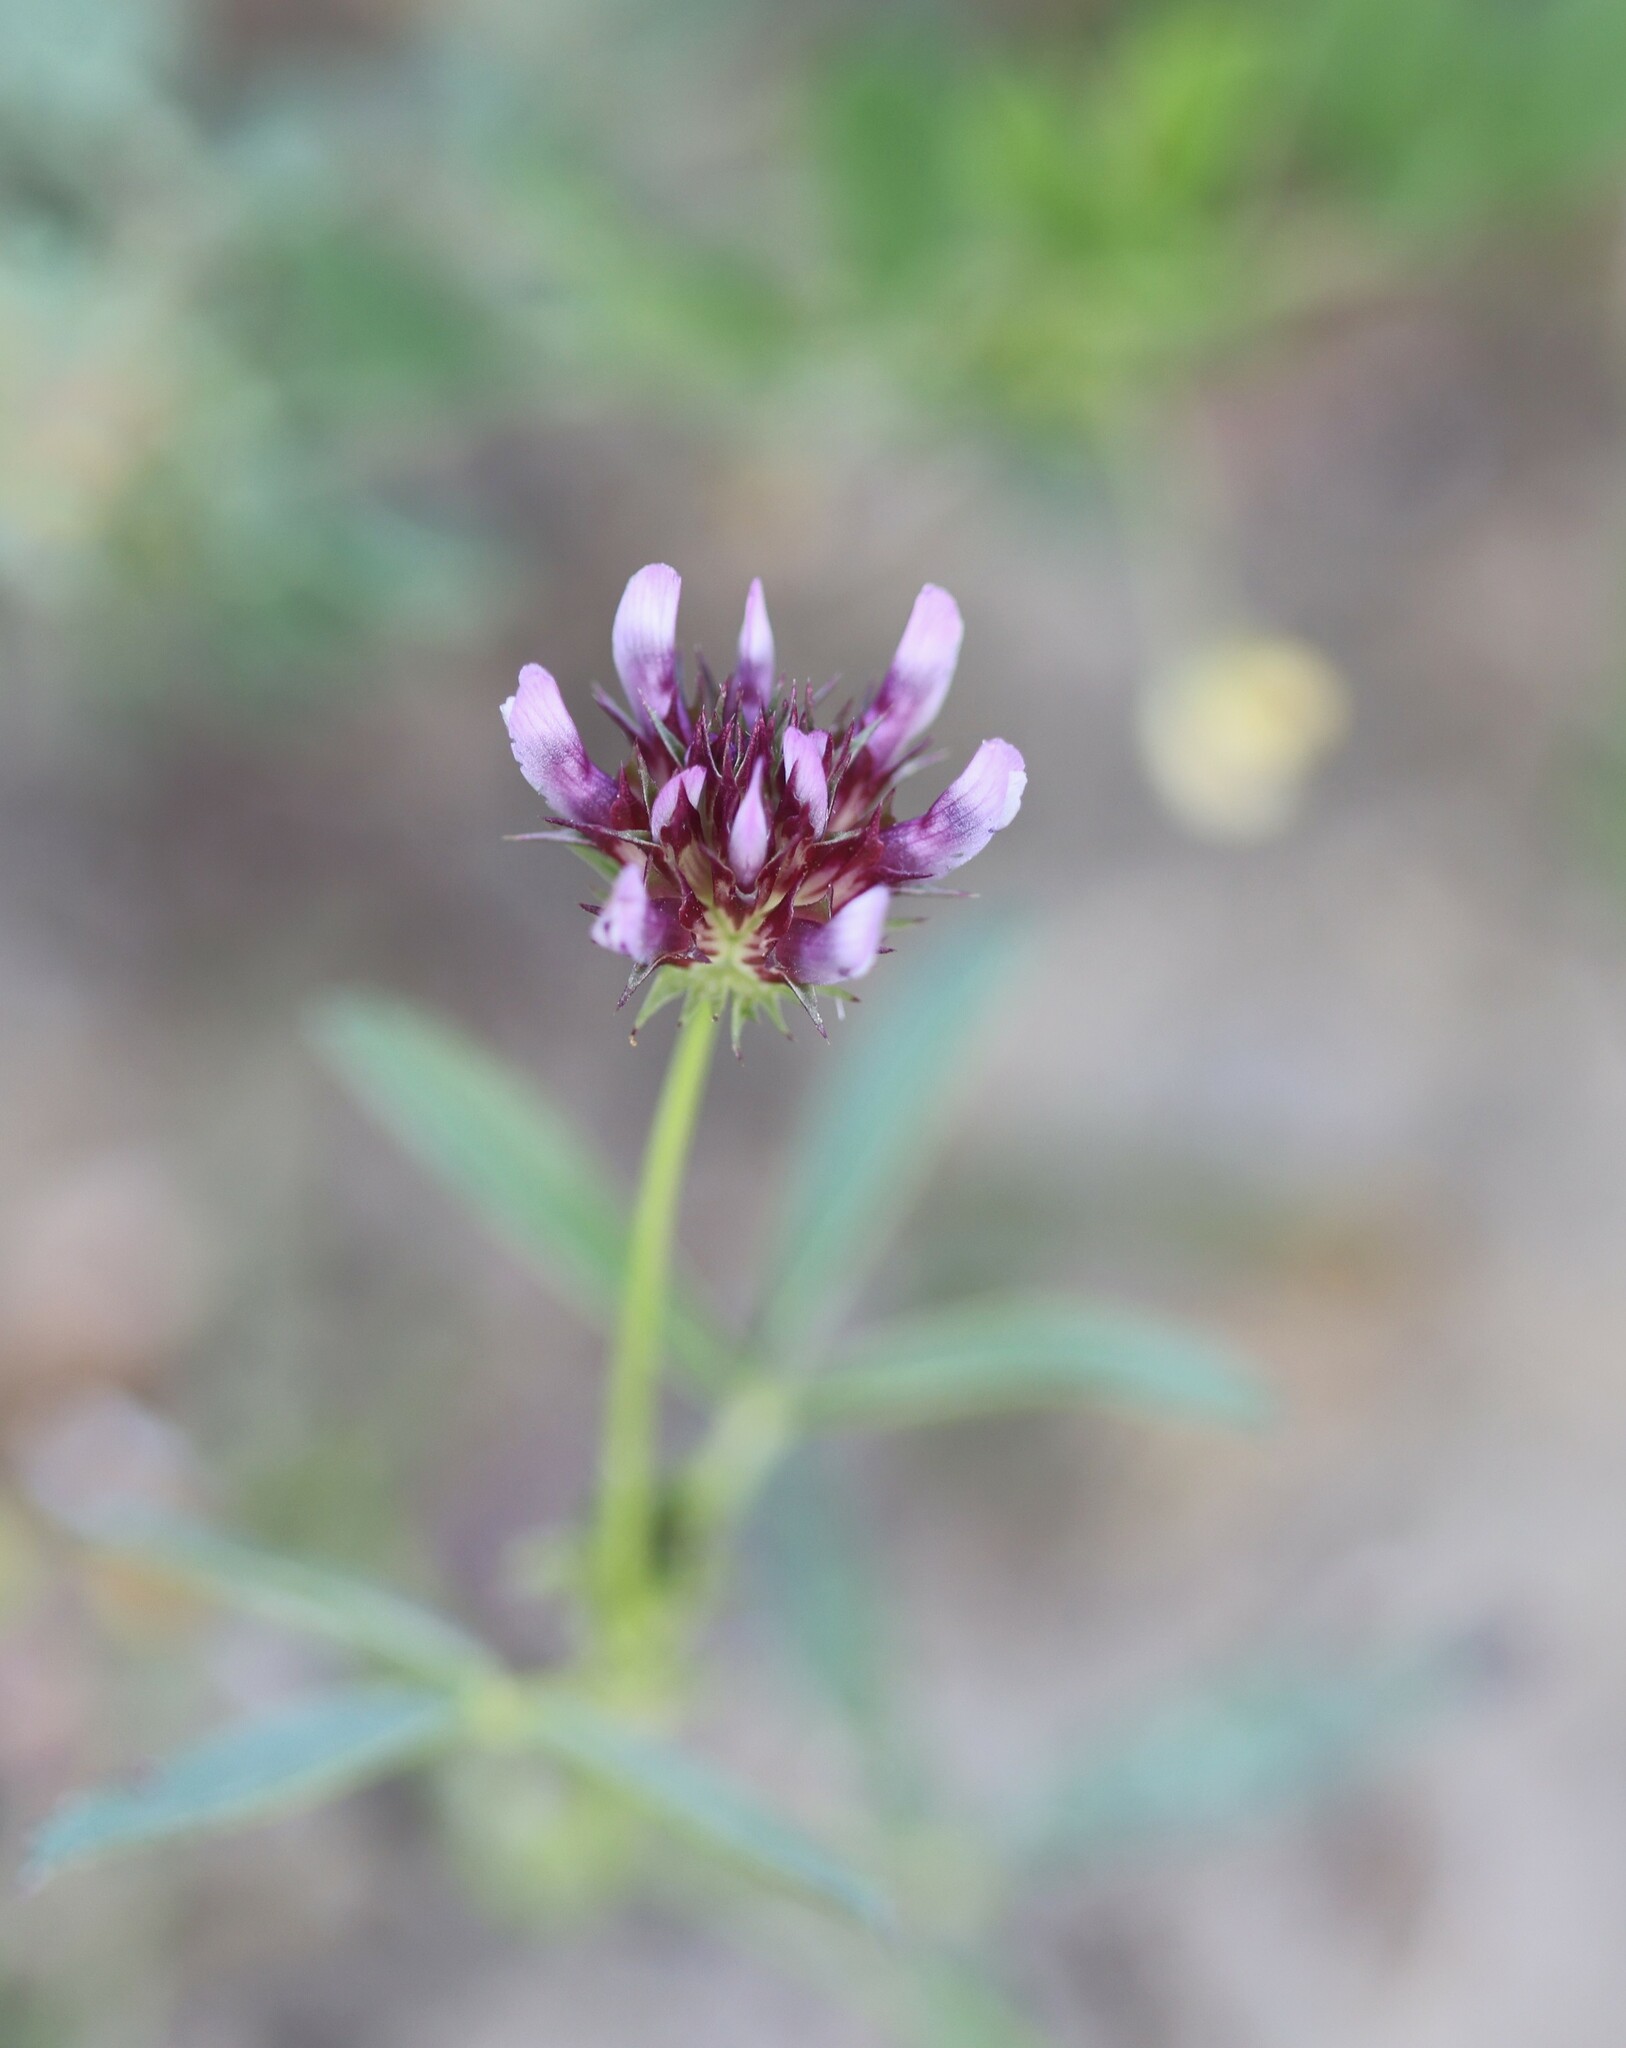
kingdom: Plantae
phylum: Tracheophyta
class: Magnoliopsida
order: Fabales
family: Fabaceae
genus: Trifolium
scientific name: Trifolium willdenovii
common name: Tomcat clover
